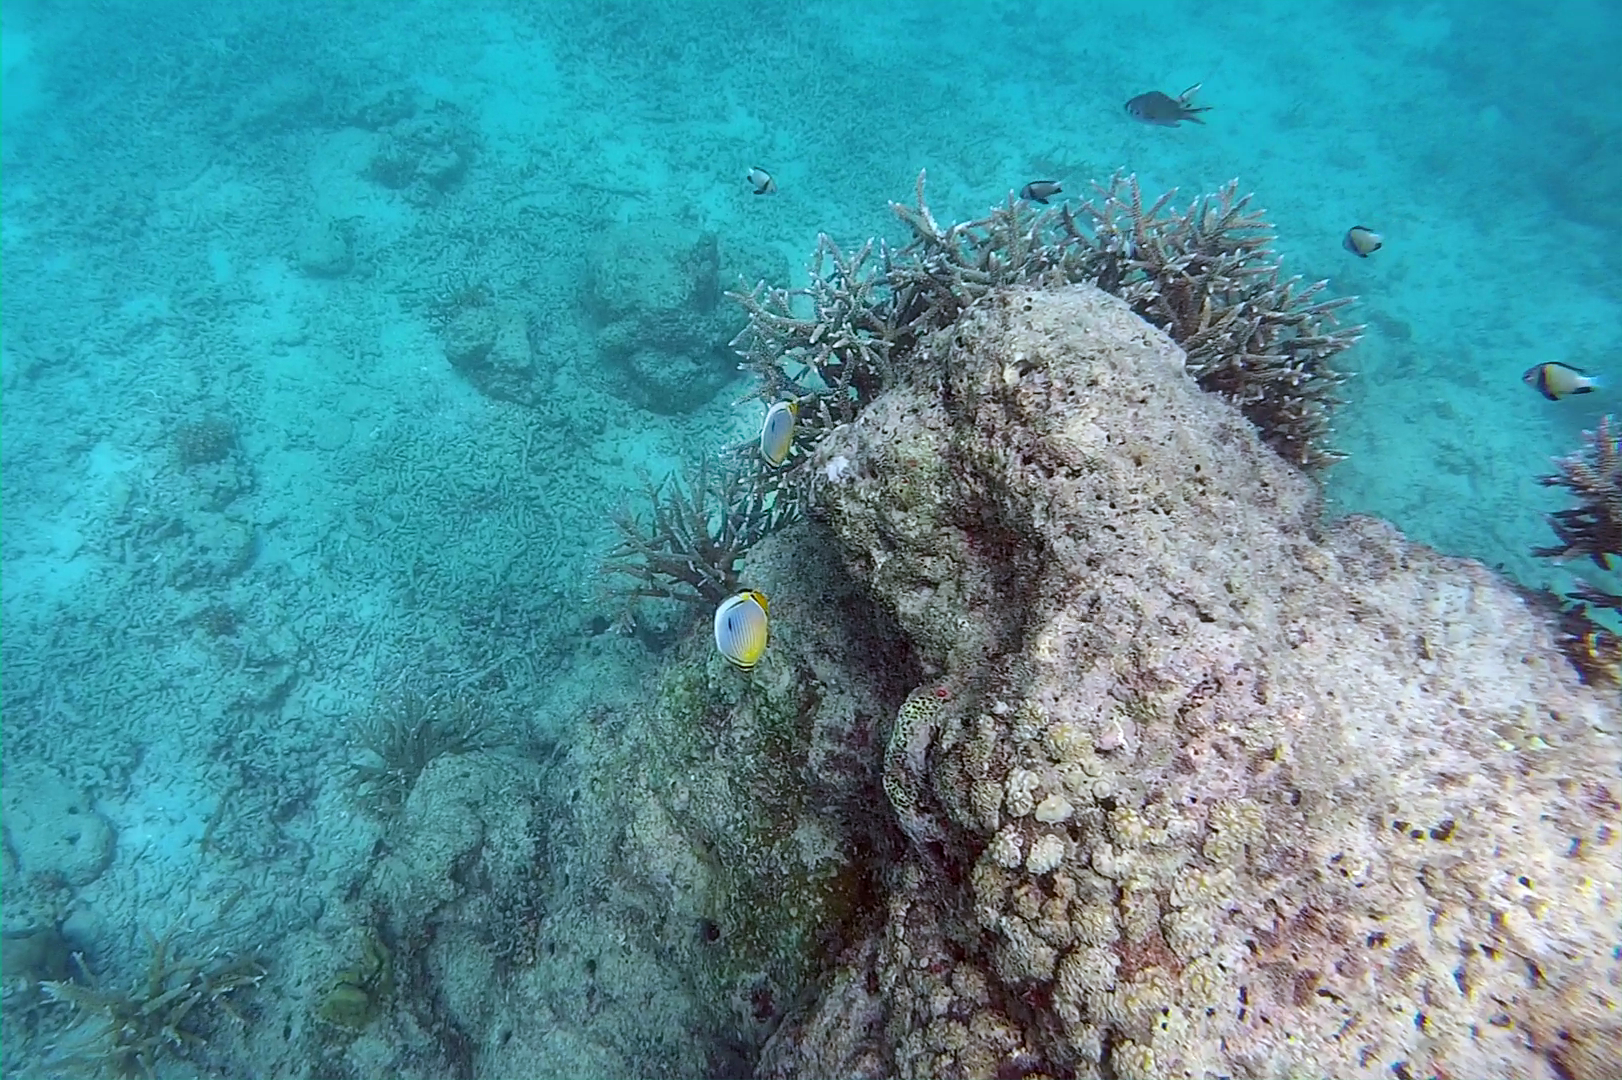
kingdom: Animalia
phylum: Chordata
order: Perciformes
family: Chaetodontidae
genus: Chaetodon
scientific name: Chaetodon trifasciatus
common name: Redfin butterflyfish
